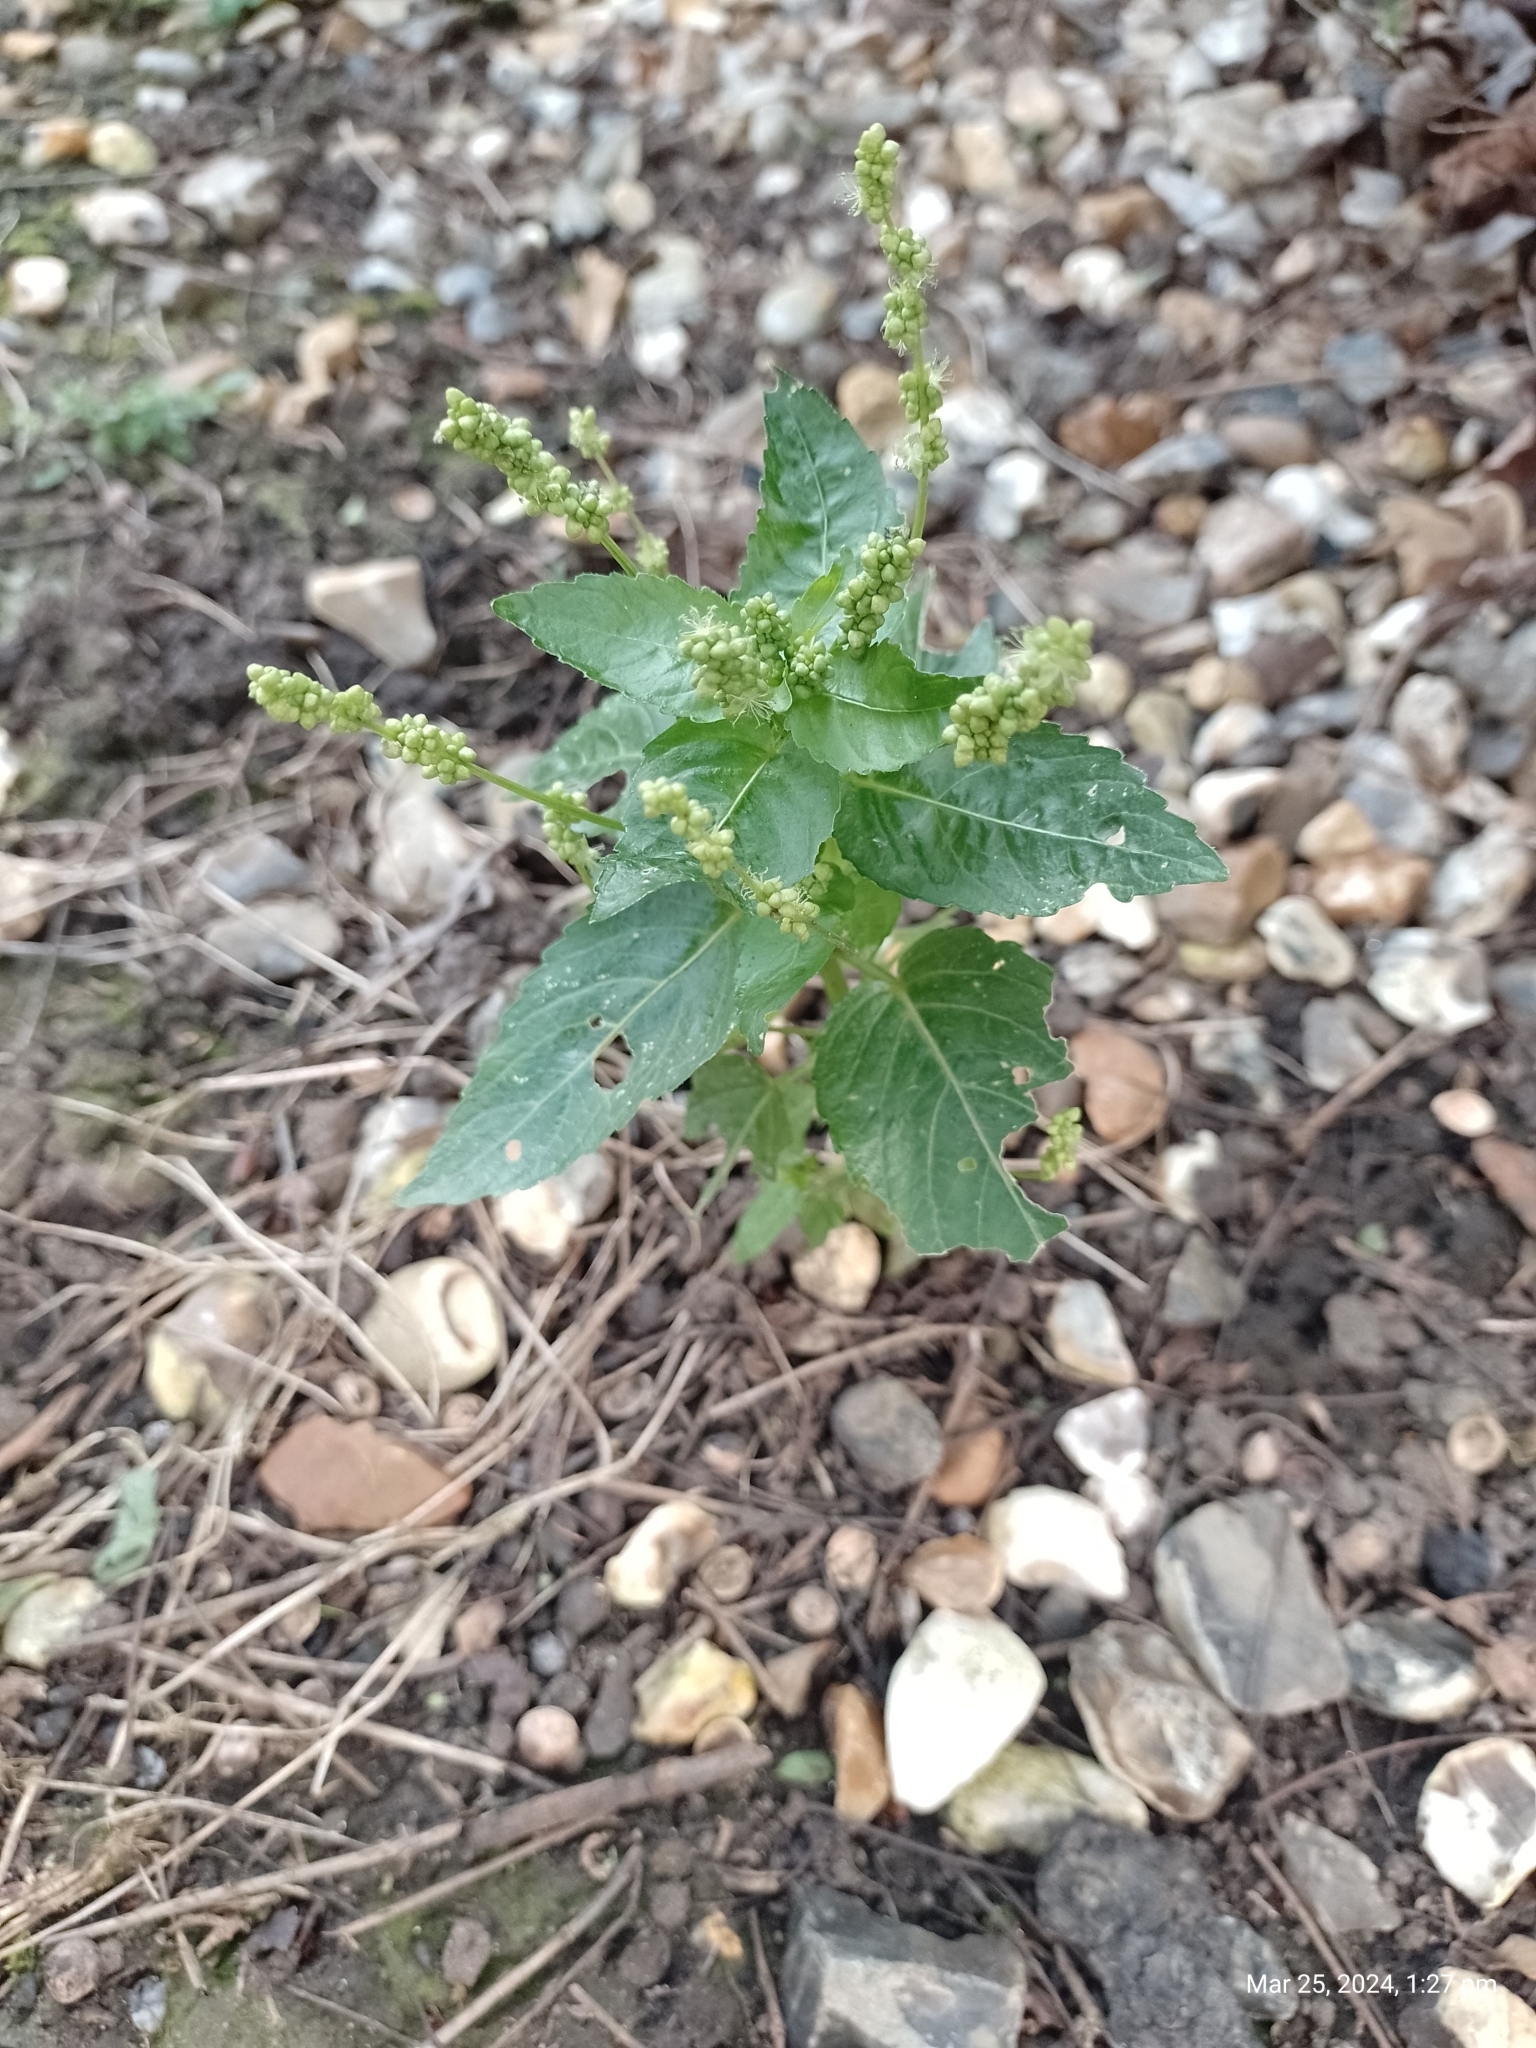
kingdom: Plantae
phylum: Tracheophyta
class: Magnoliopsida
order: Malpighiales
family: Euphorbiaceae
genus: Mercurialis
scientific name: Mercurialis annua
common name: Annual mercury
